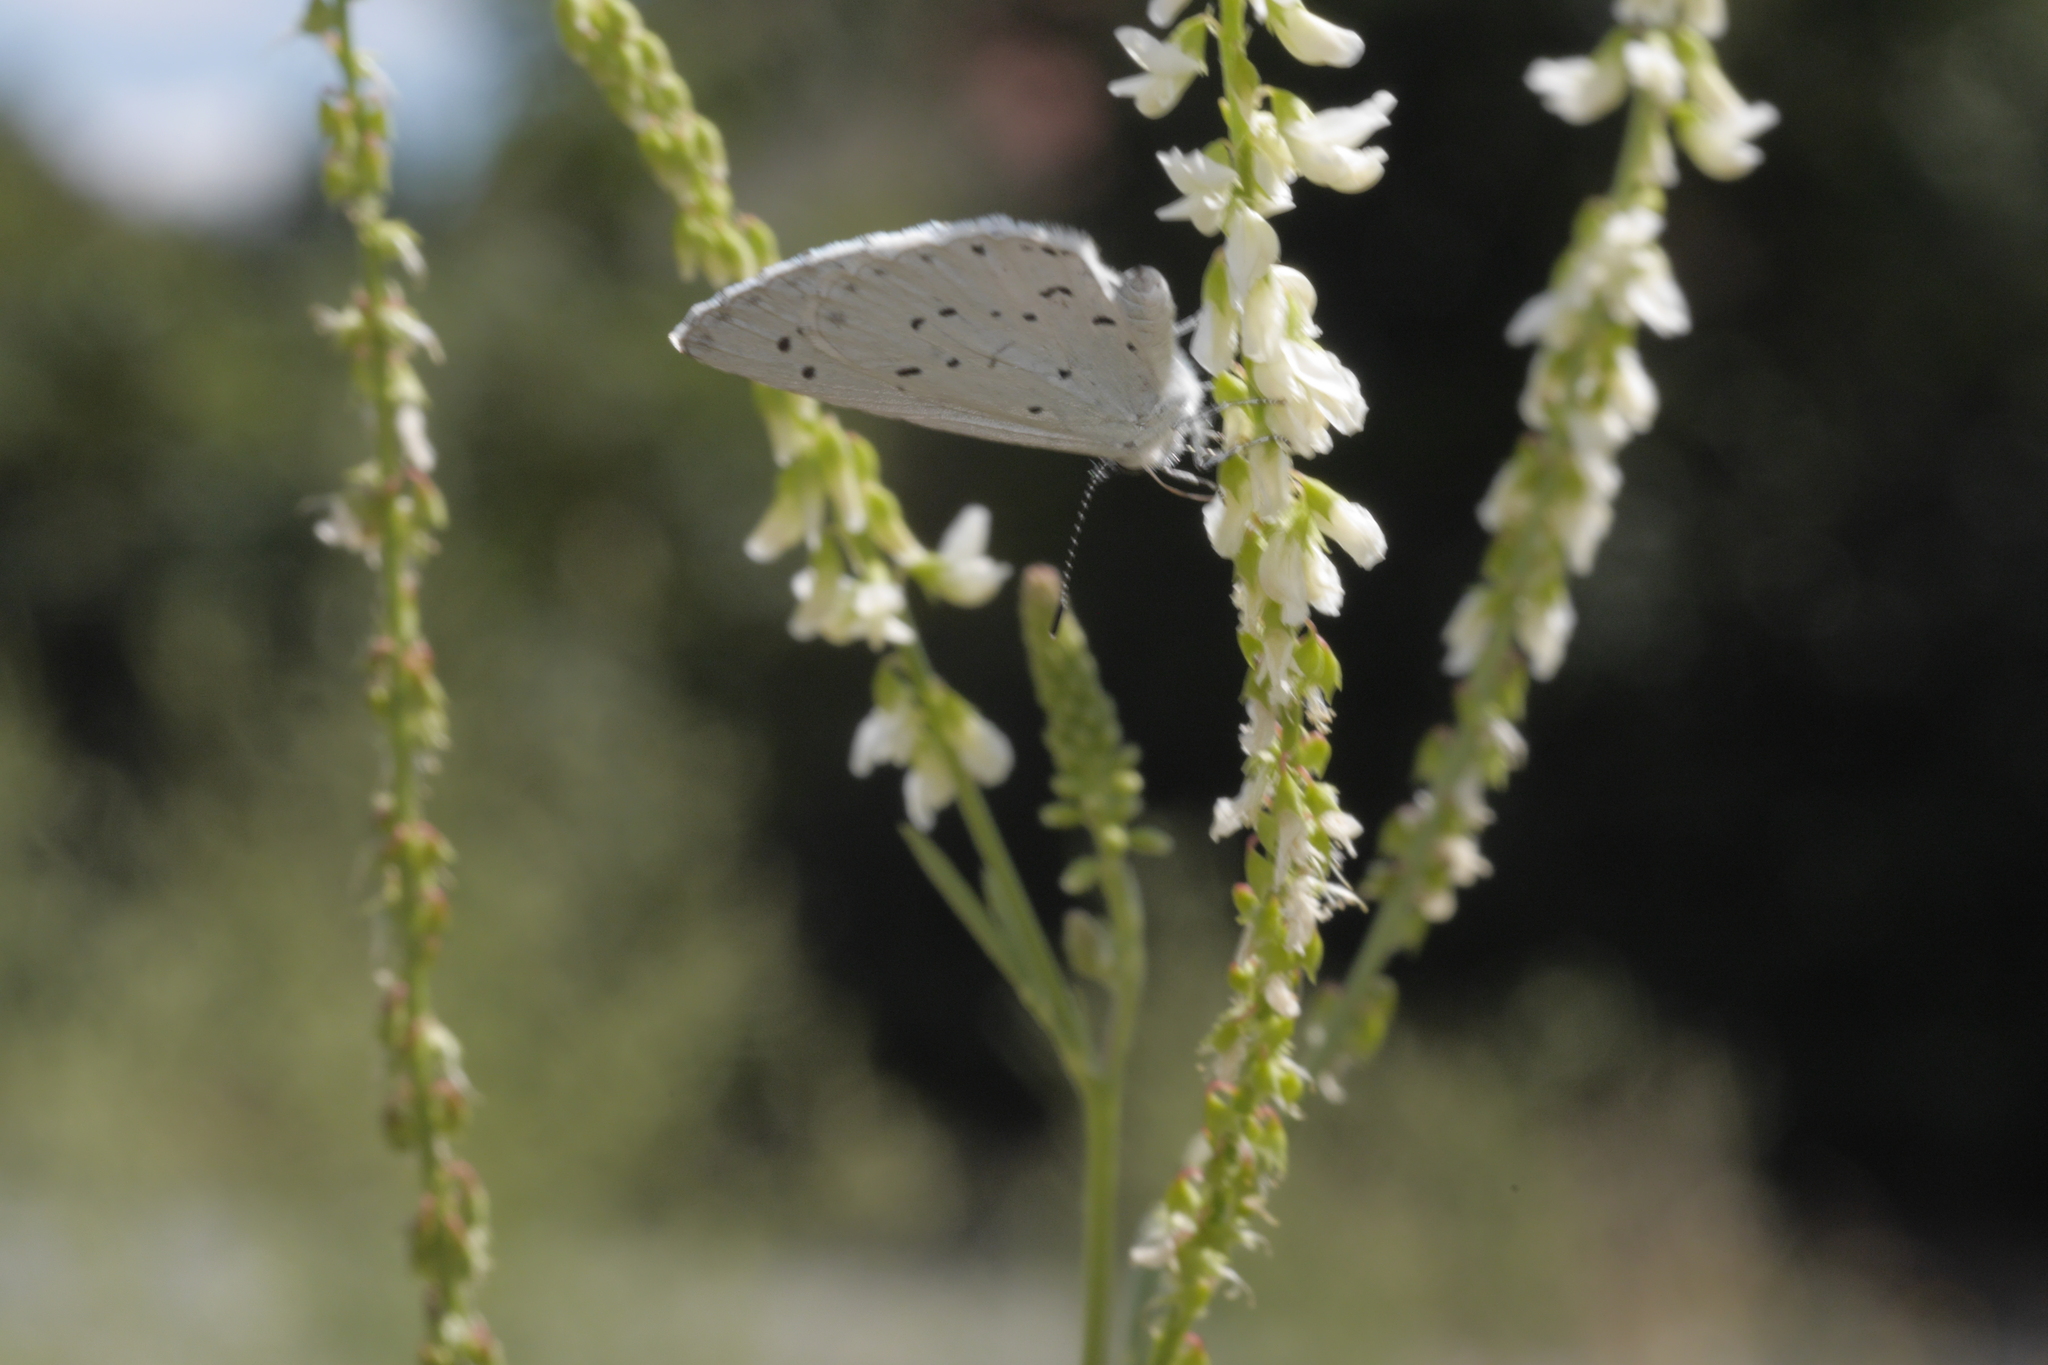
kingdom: Animalia
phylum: Arthropoda
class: Insecta
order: Lepidoptera
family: Lycaenidae
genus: Celastrina
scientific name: Celastrina argiolus
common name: Holly blue
